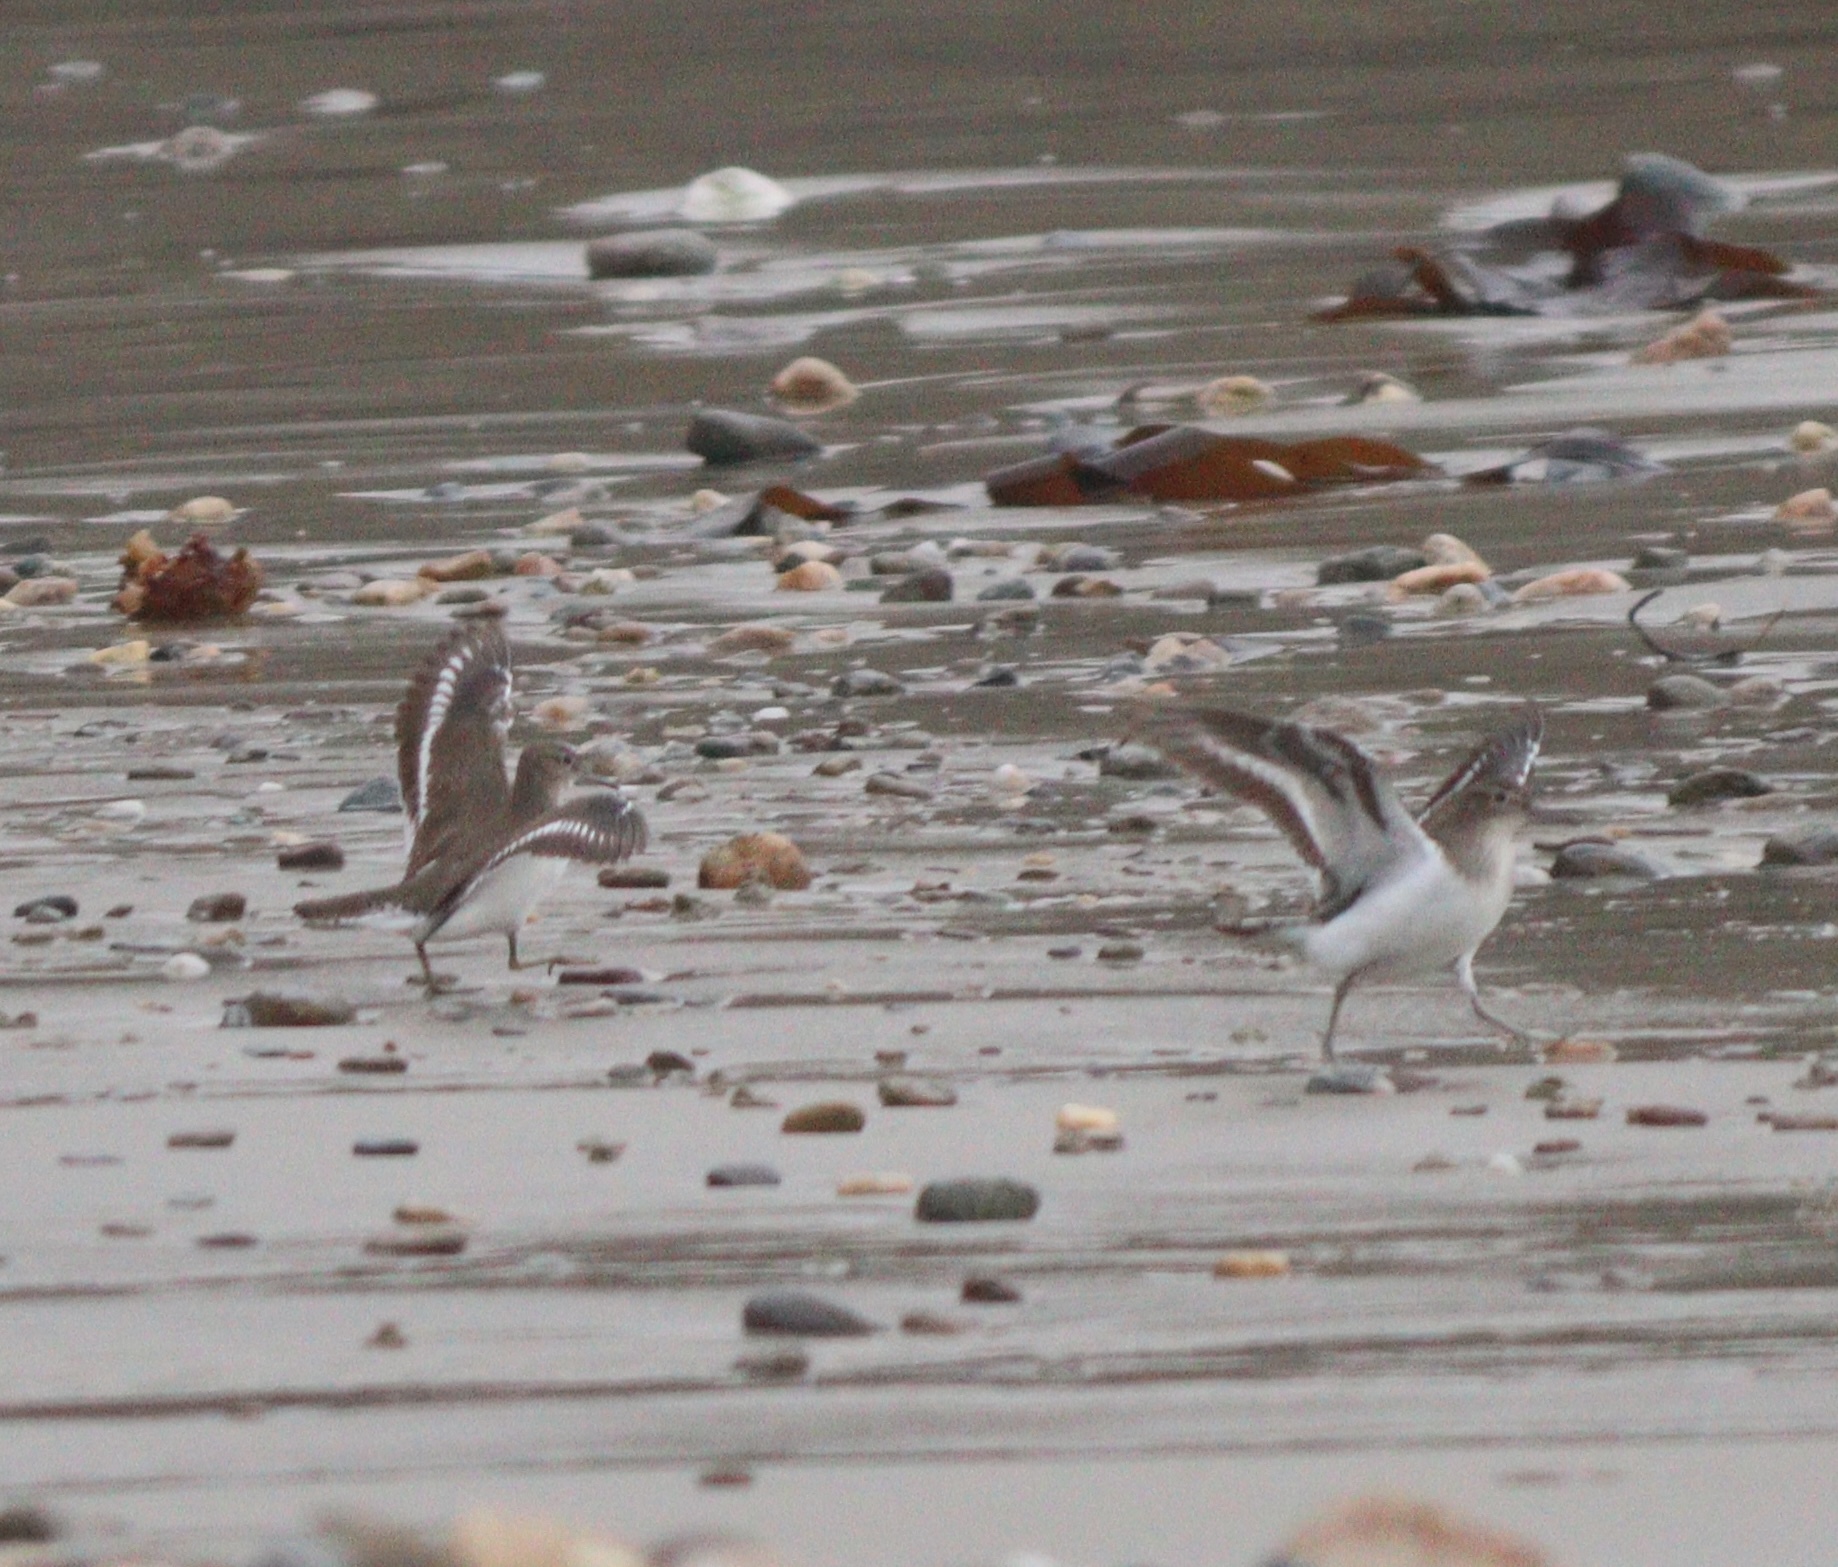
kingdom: Animalia
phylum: Chordata
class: Aves
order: Charadriiformes
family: Scolopacidae
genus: Actitis
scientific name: Actitis hypoleucos
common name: Common sandpiper
